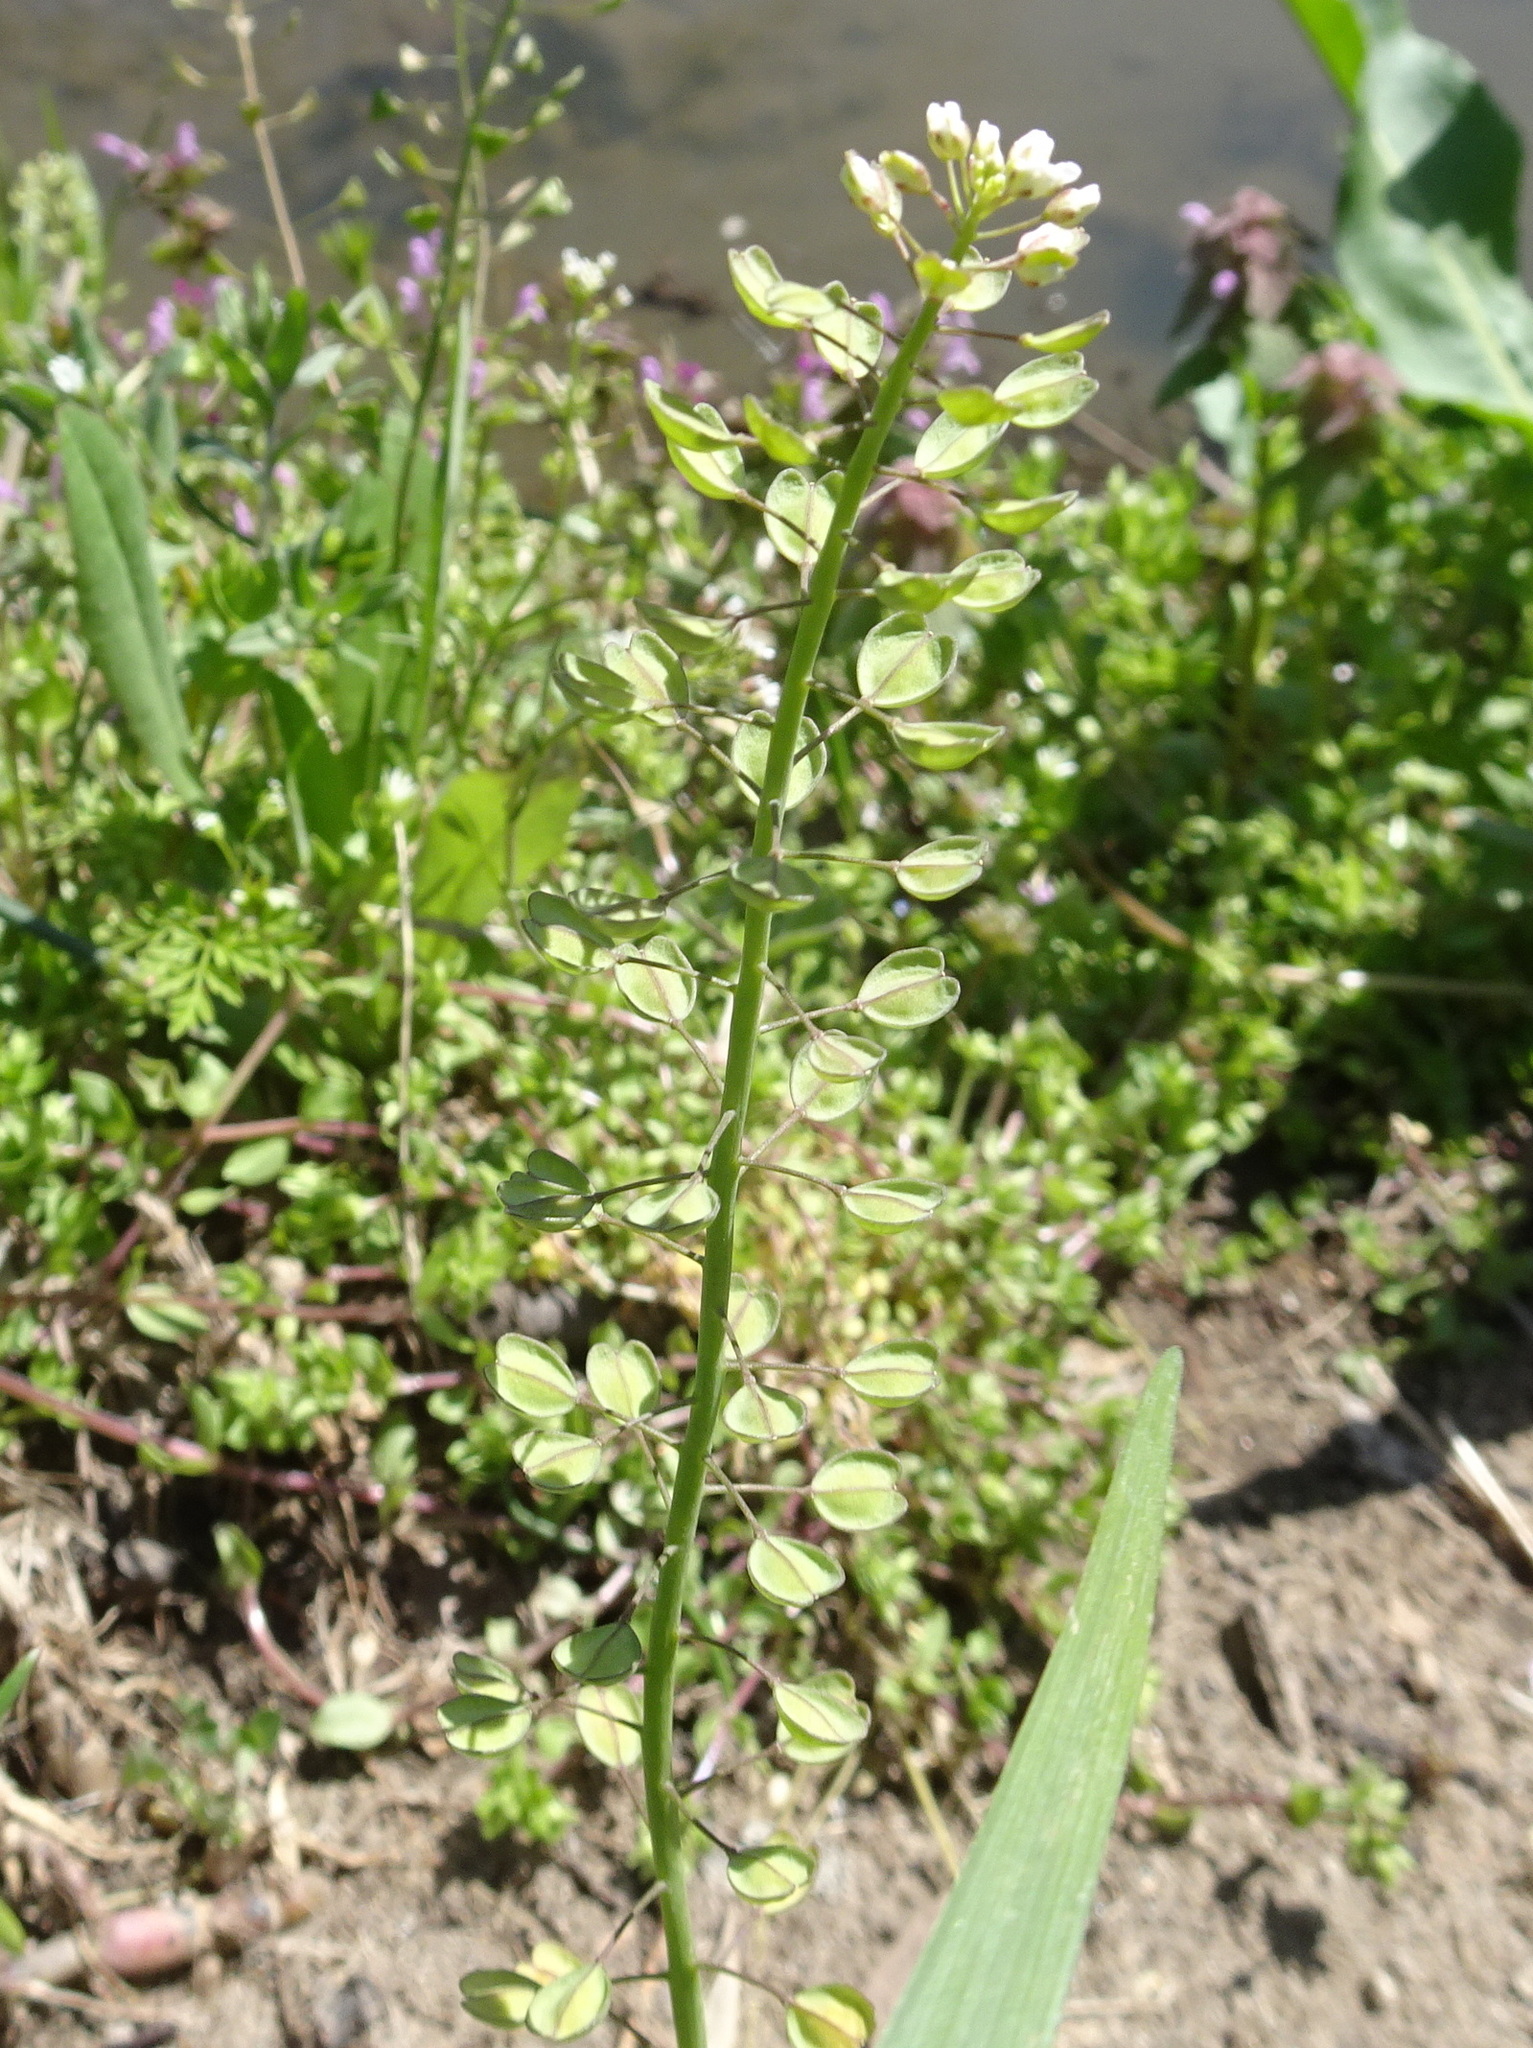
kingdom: Plantae
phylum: Tracheophyta
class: Magnoliopsida
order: Brassicales
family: Brassicaceae
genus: Noccaea
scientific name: Noccaea perfoliata
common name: Perfoliate pennycress
